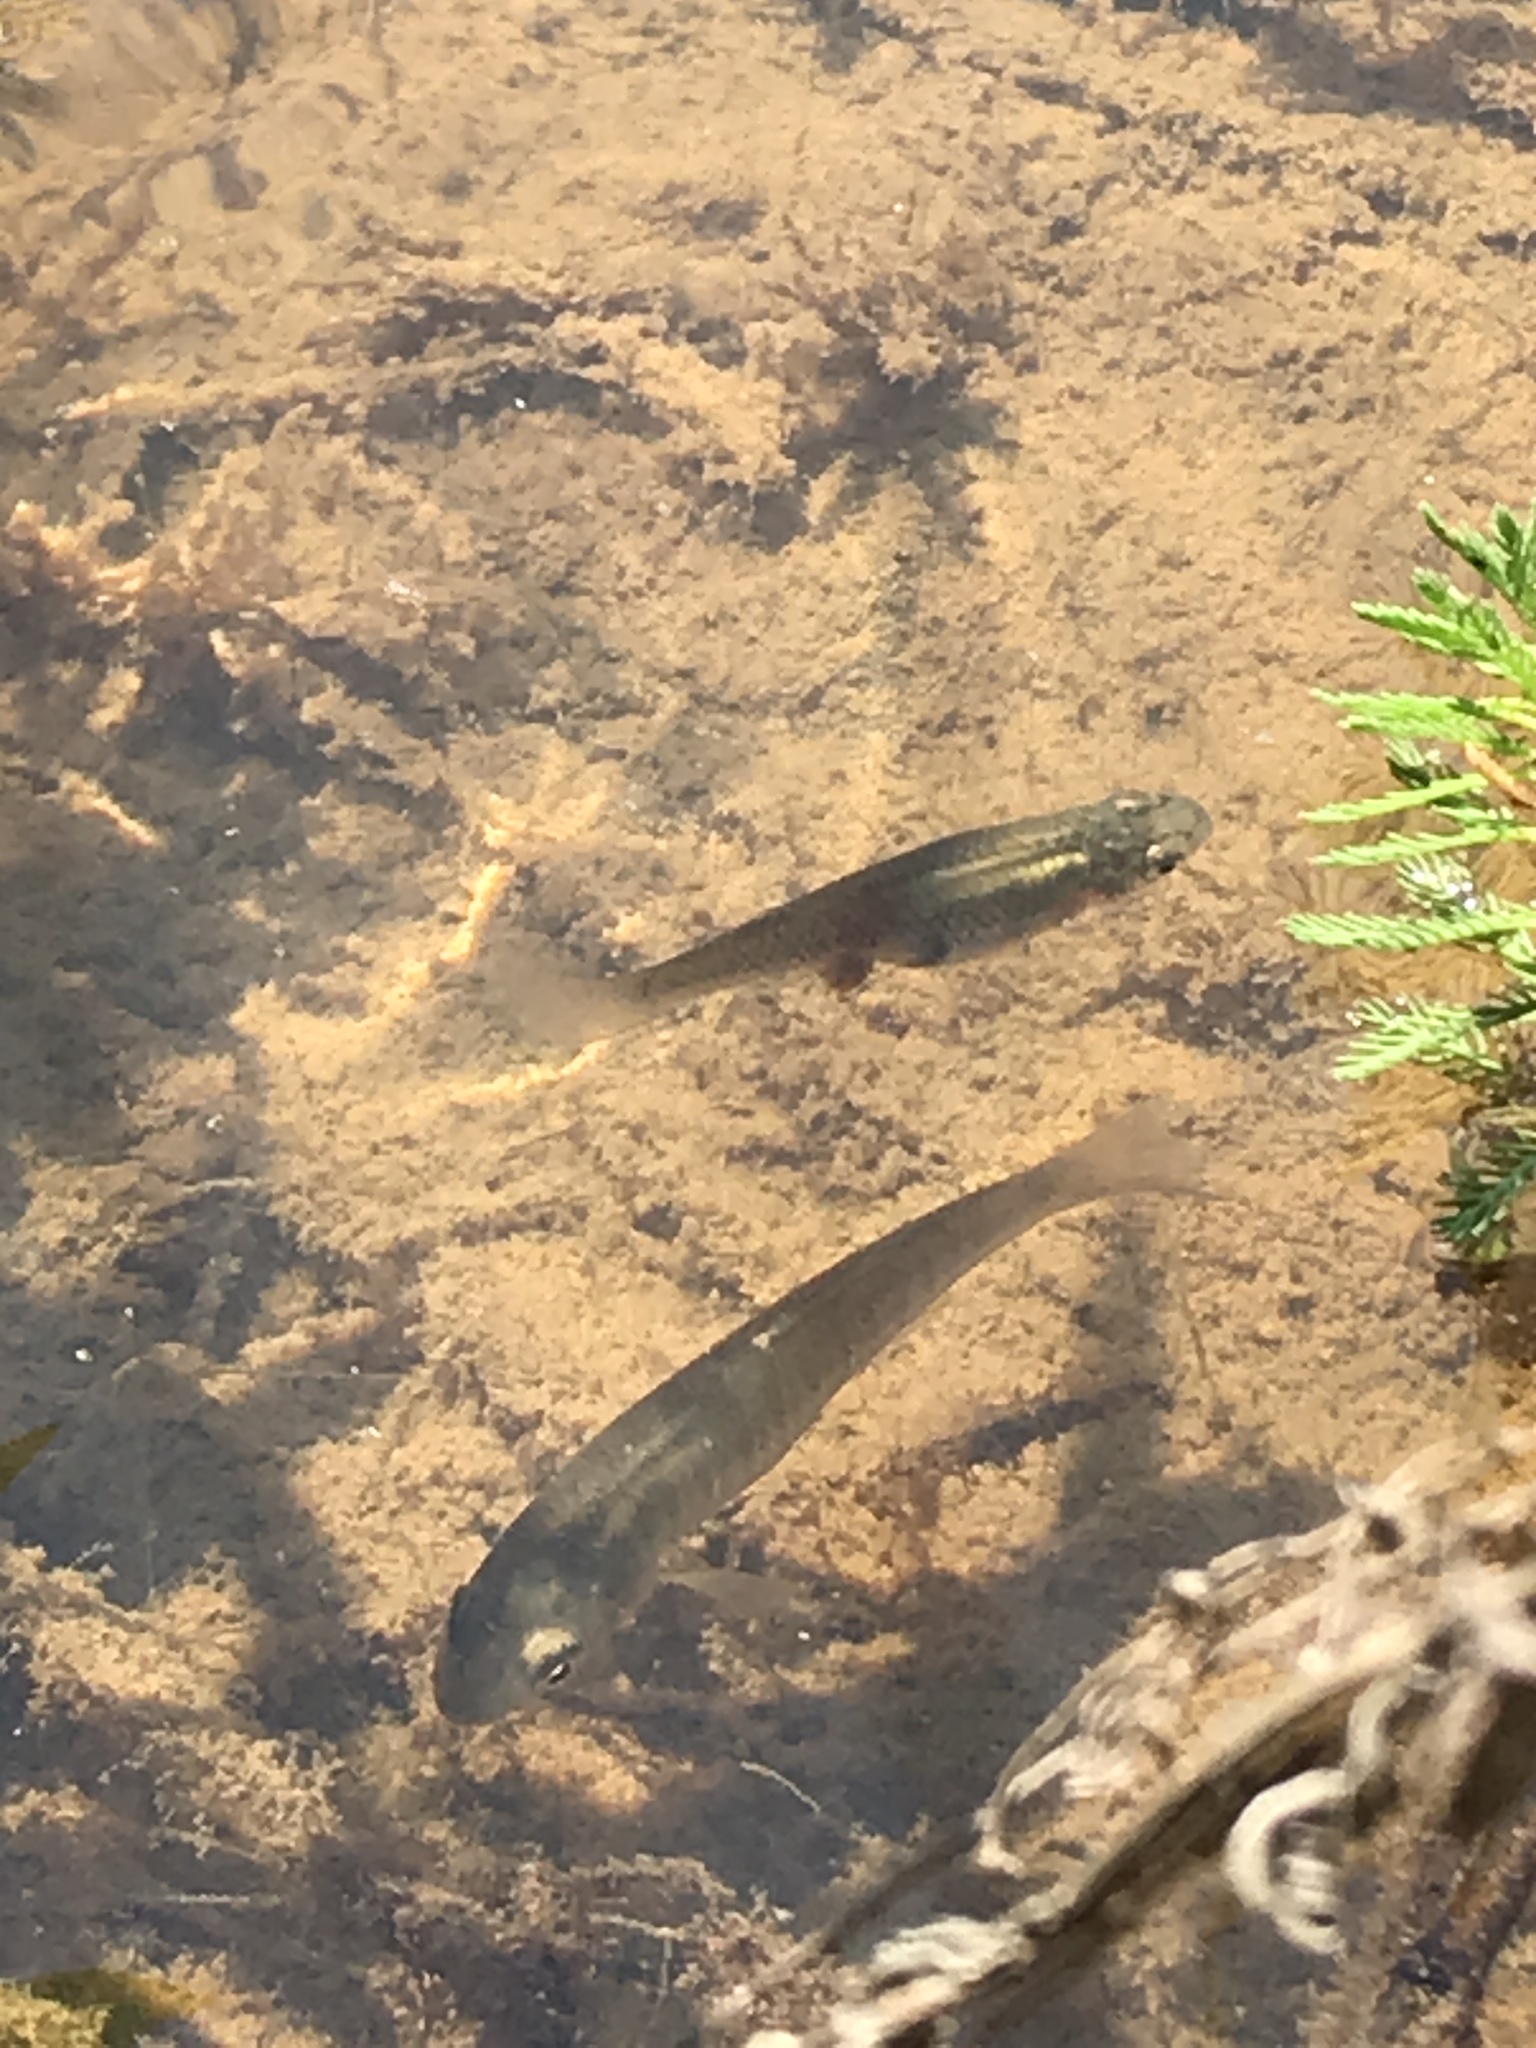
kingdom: Animalia
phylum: Chordata
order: Cyprinodontiformes
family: Poeciliidae
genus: Gambusia
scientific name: Gambusia holbrooki
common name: Eastern mosquitofish
